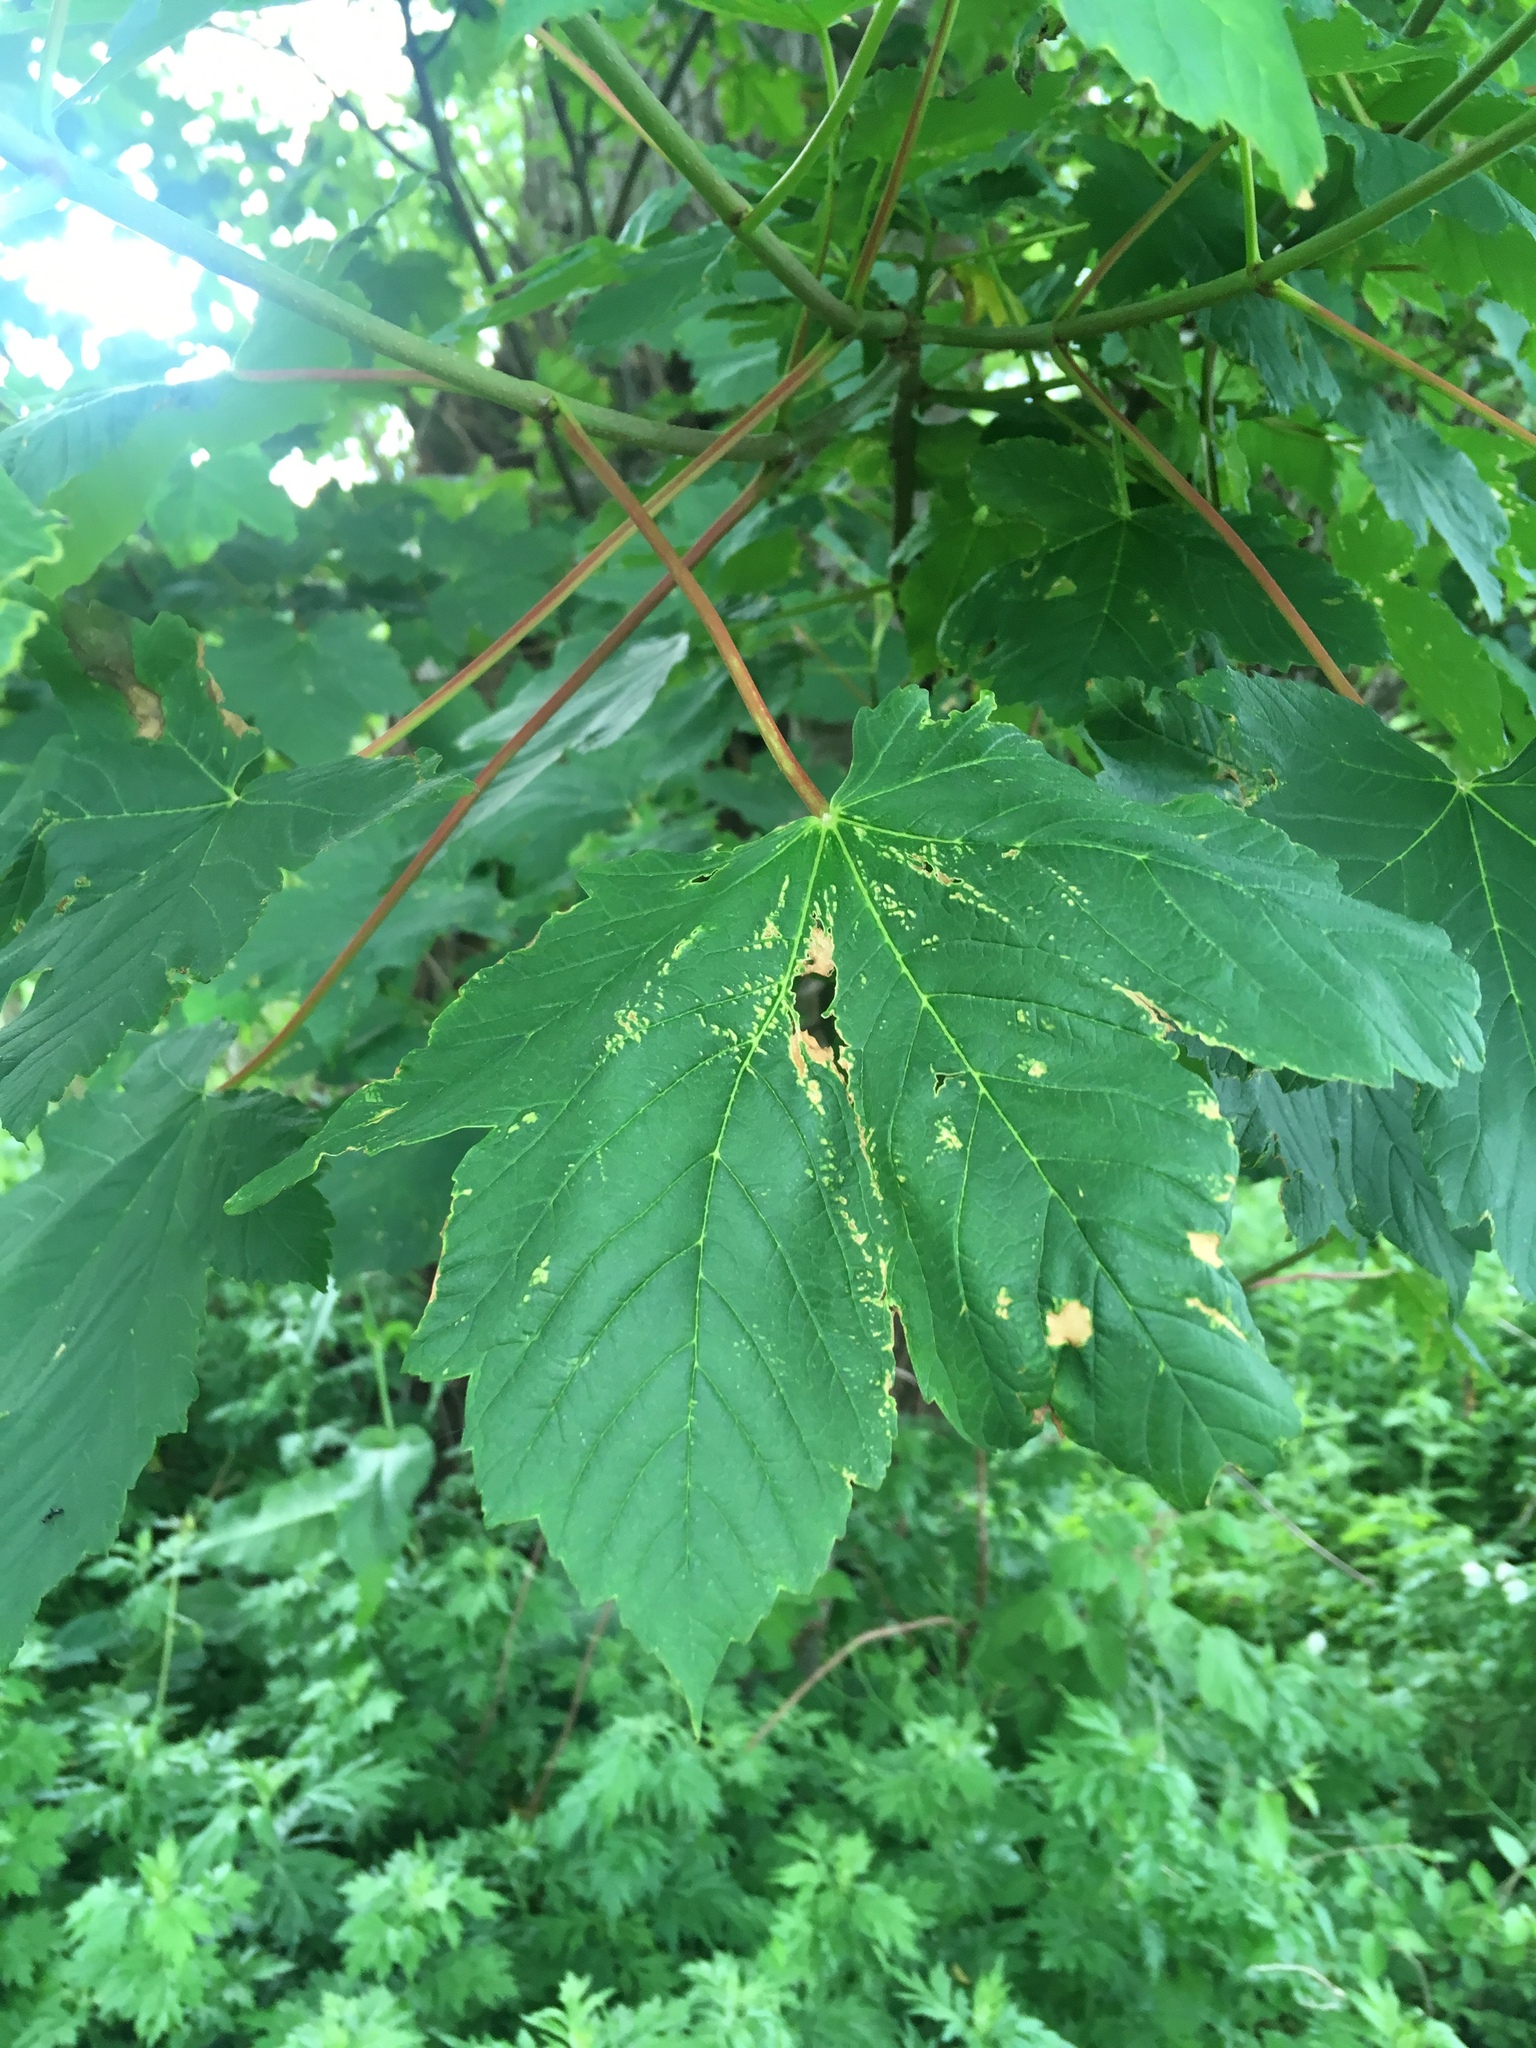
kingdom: Plantae
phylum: Tracheophyta
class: Magnoliopsida
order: Sapindales
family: Sapindaceae
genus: Acer
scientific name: Acer pseudoplatanus
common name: Sycamore
